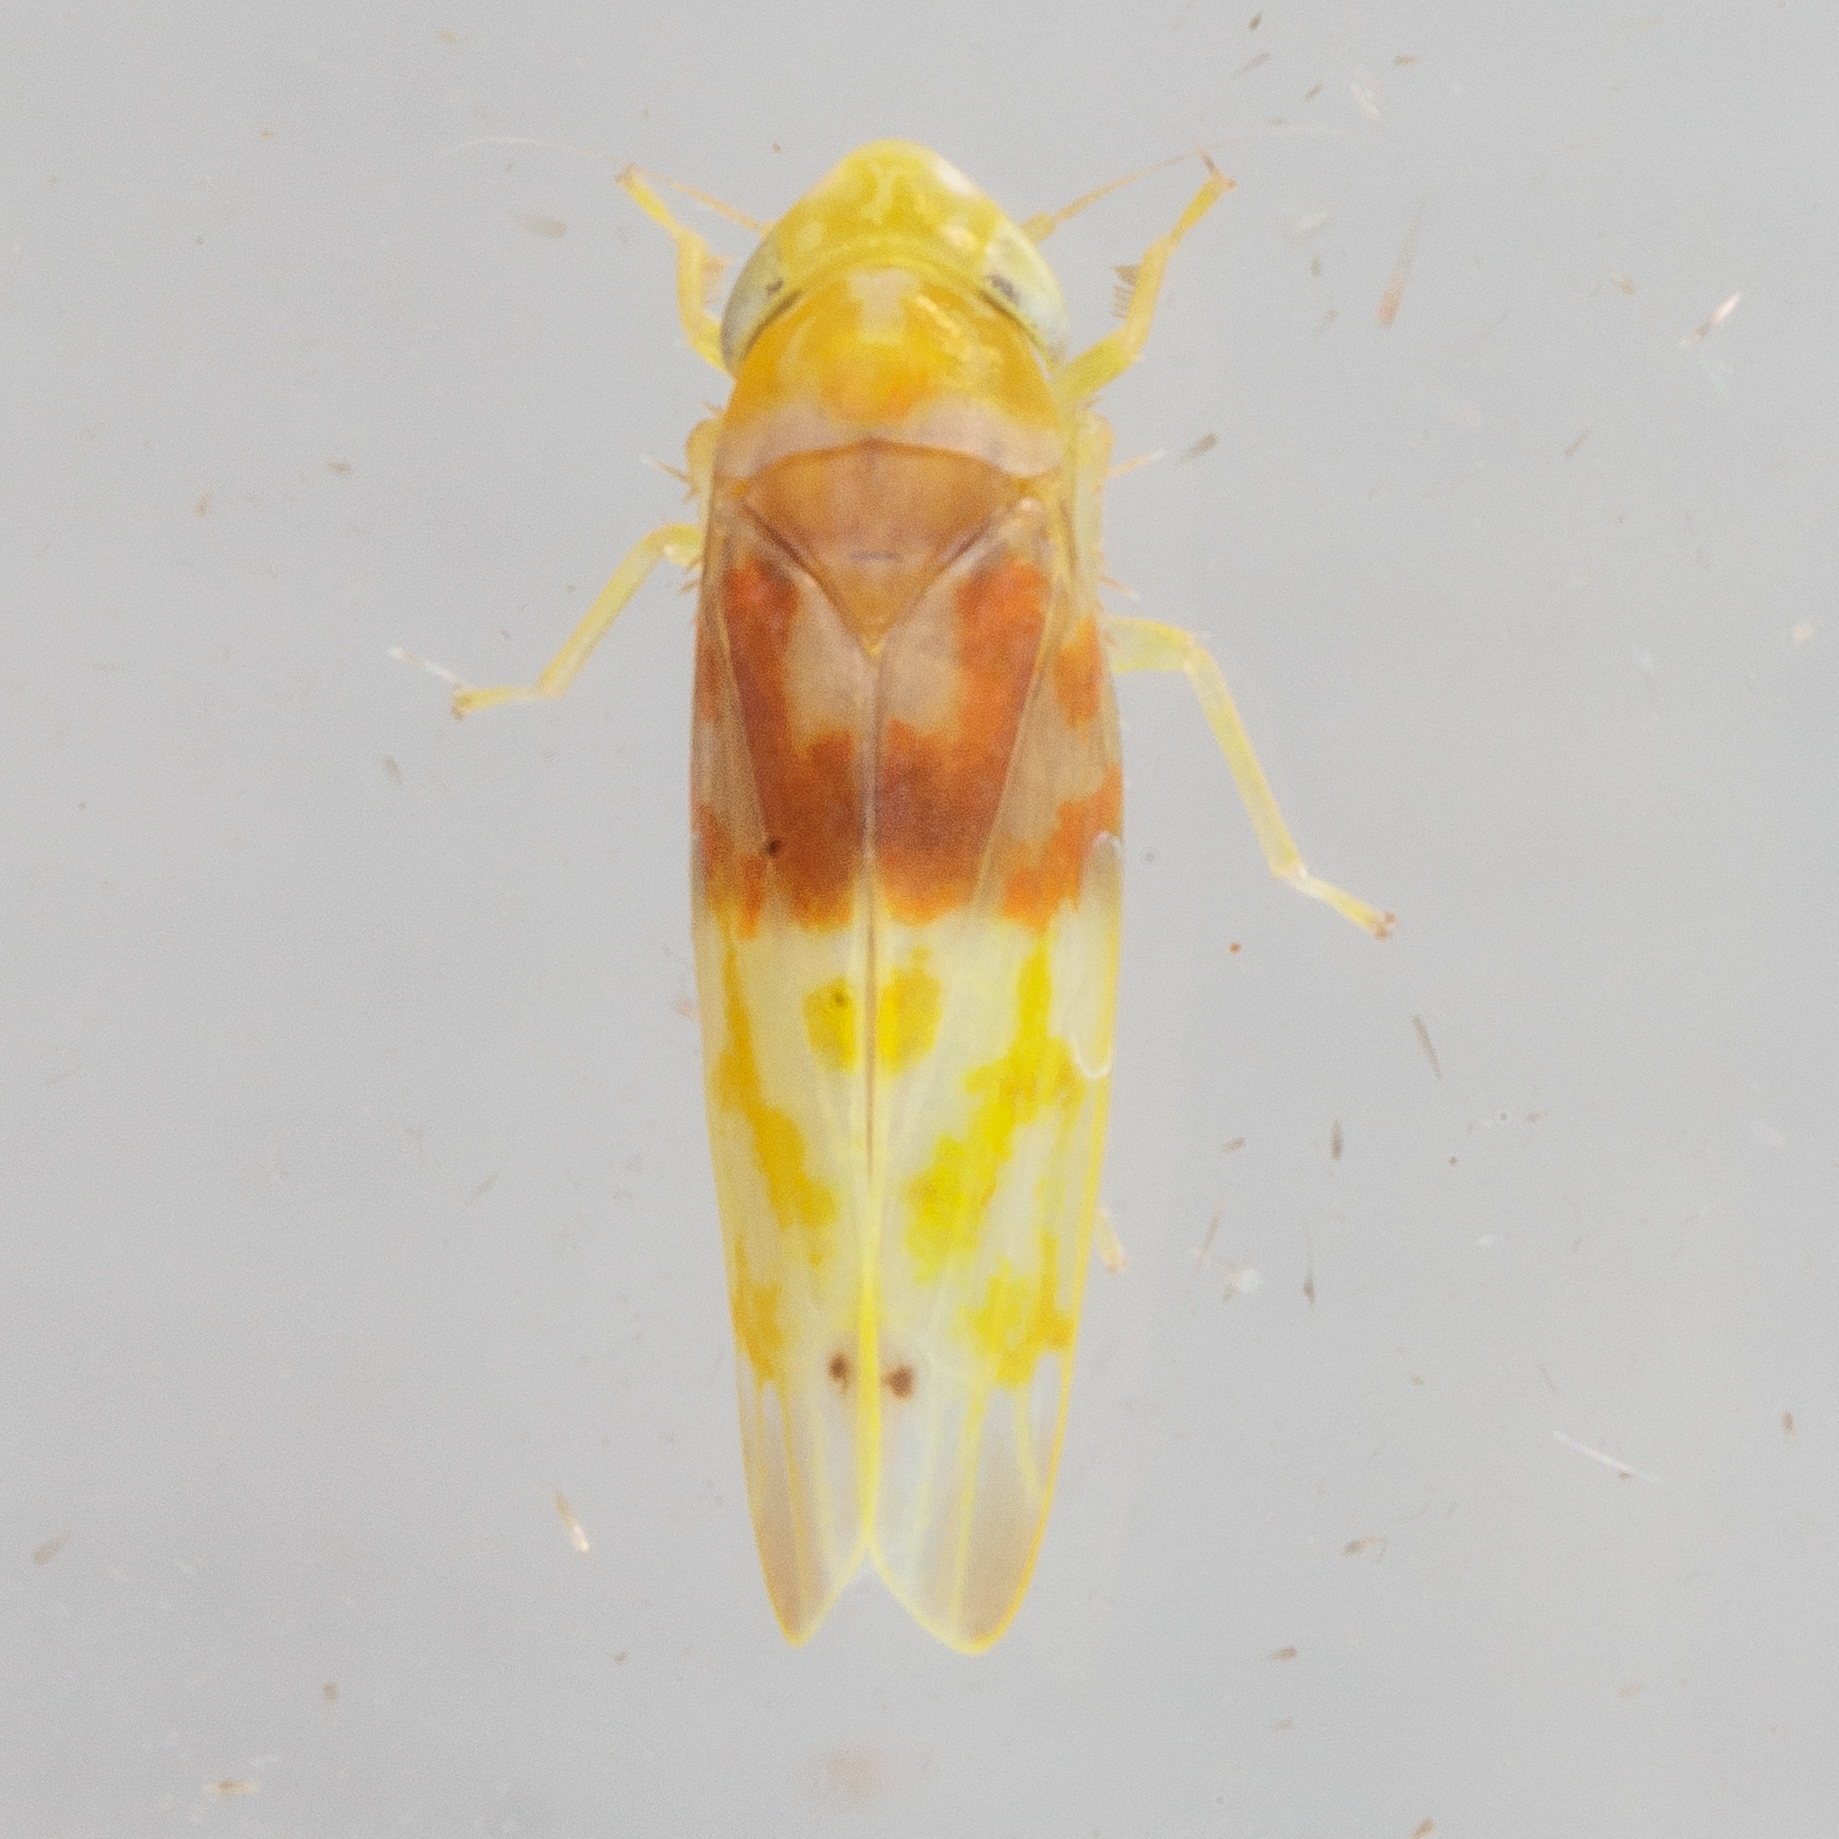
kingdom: Animalia
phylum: Arthropoda
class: Insecta
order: Hemiptera
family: Cicadellidae
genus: Eratoneura
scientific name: Eratoneura affinis
